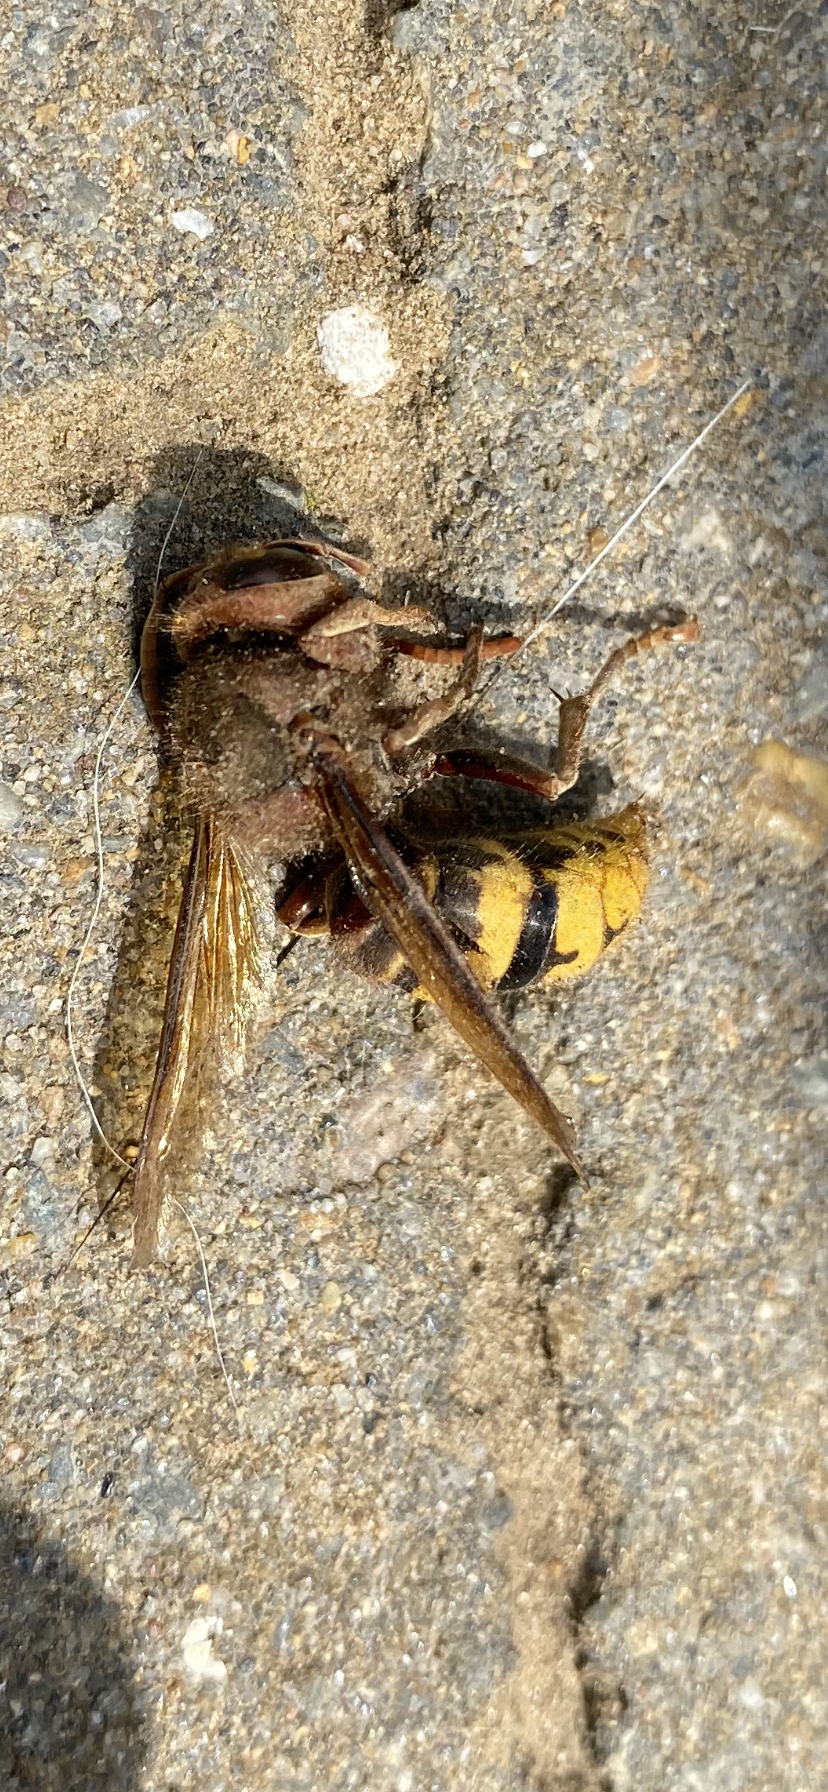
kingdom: Animalia
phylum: Arthropoda
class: Insecta
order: Hymenoptera
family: Vespidae
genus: Vespa
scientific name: Vespa crabro
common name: Hornet
